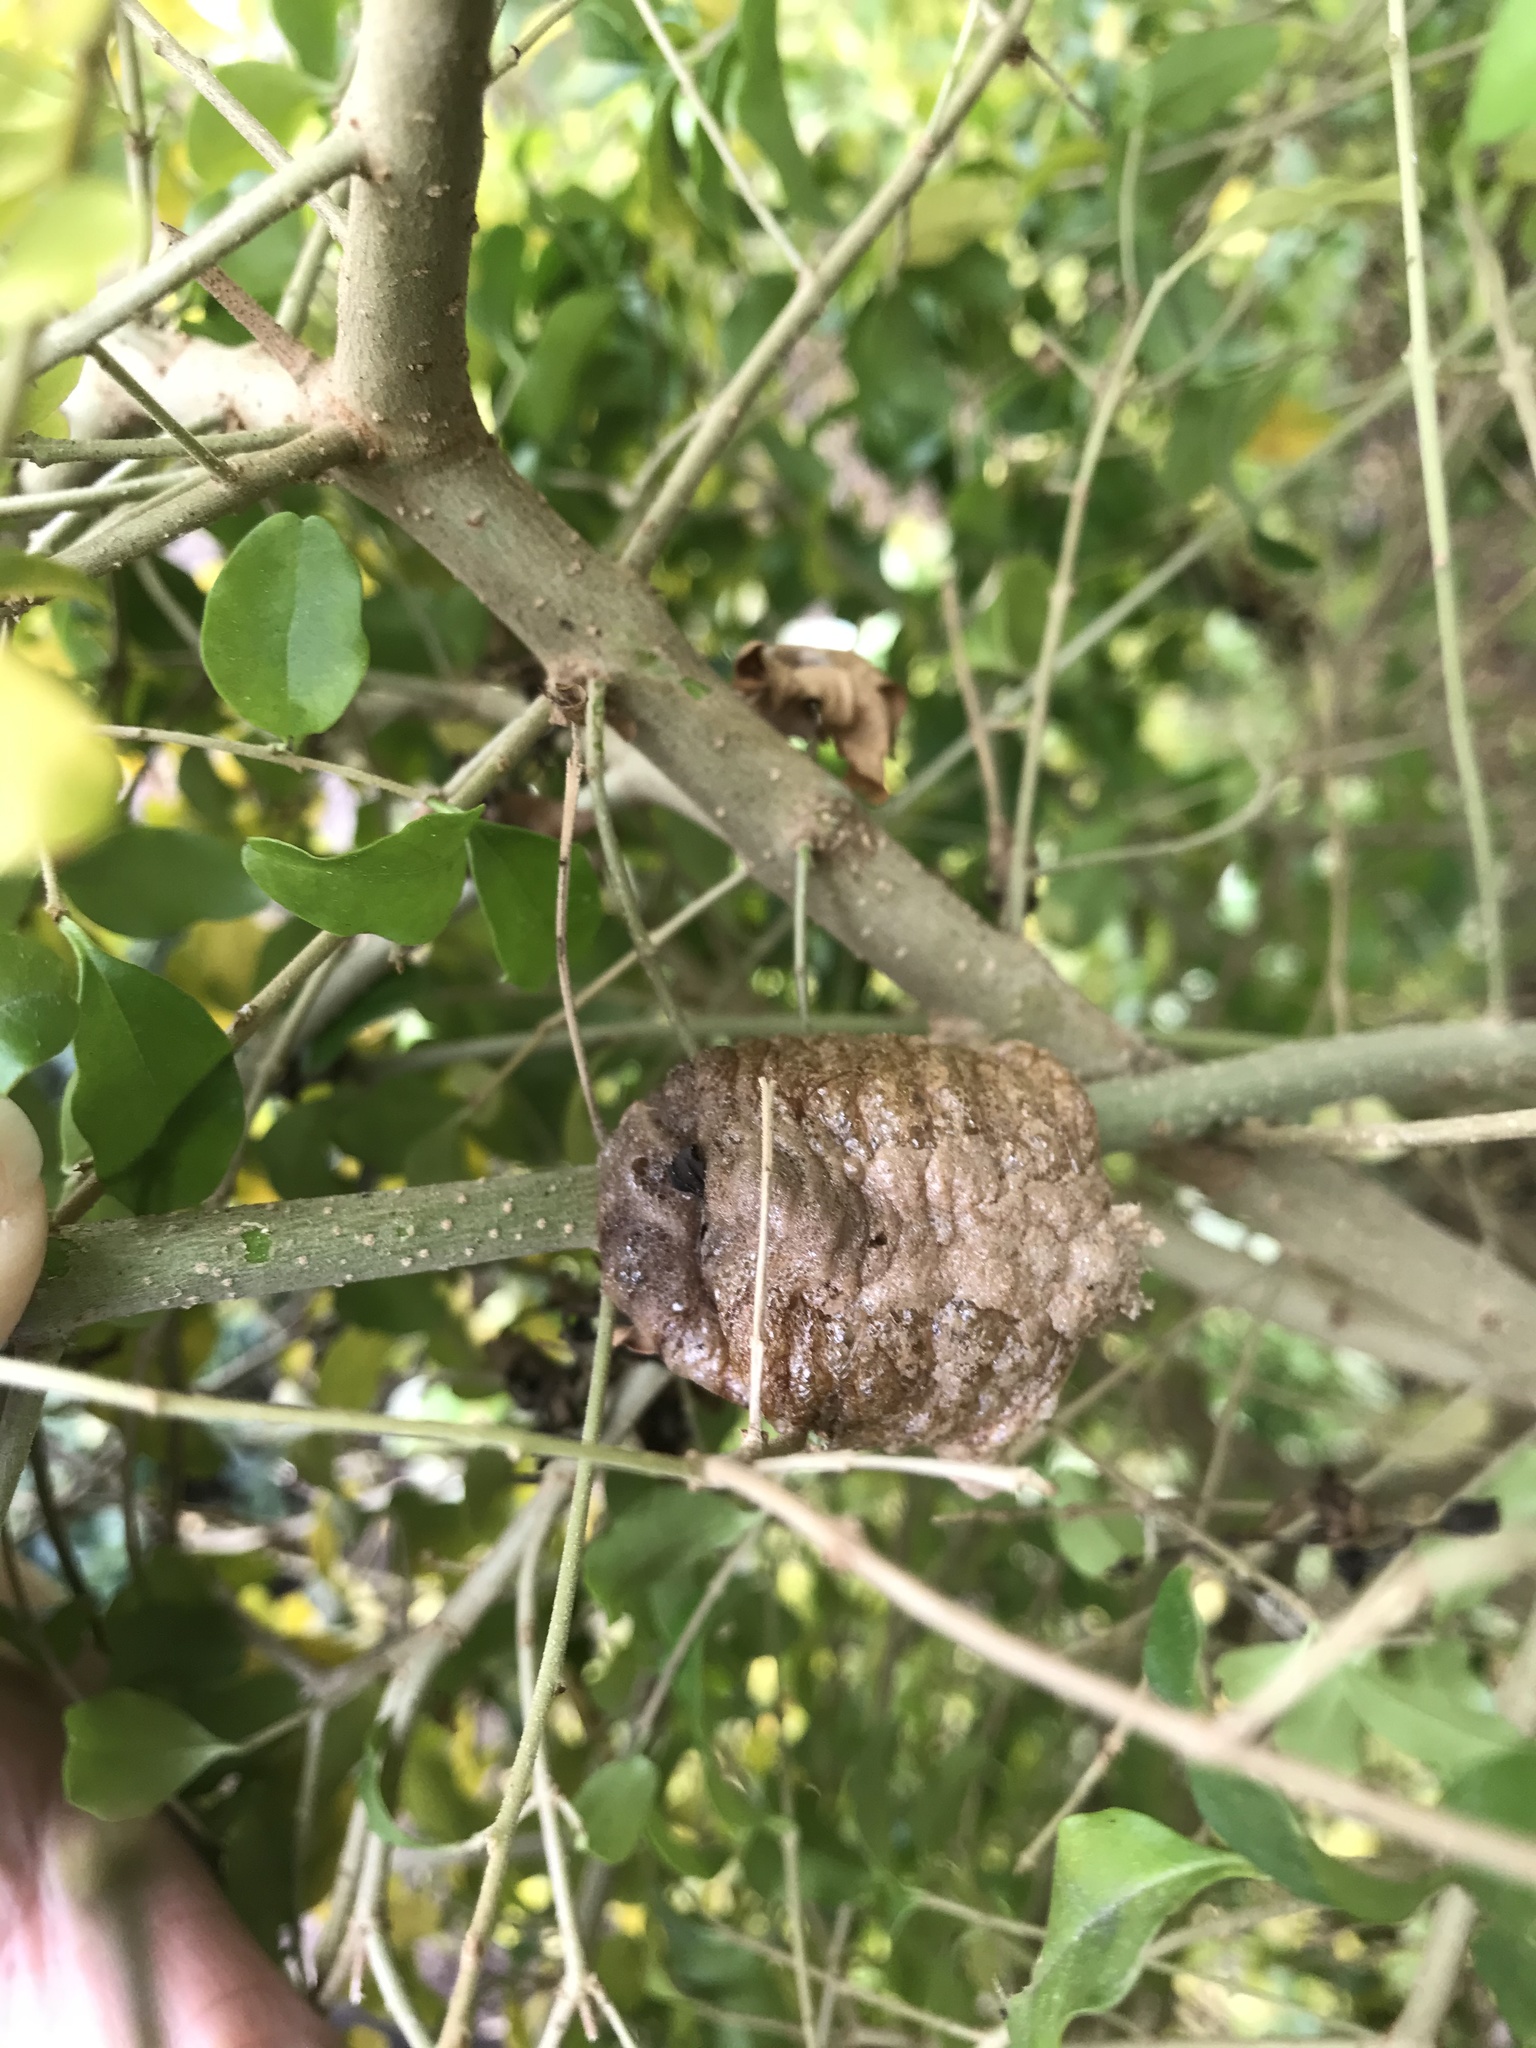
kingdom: Animalia
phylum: Arthropoda
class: Insecta
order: Mantodea
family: Mantidae
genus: Tenodera
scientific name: Tenodera sinensis
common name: Chinese mantis
